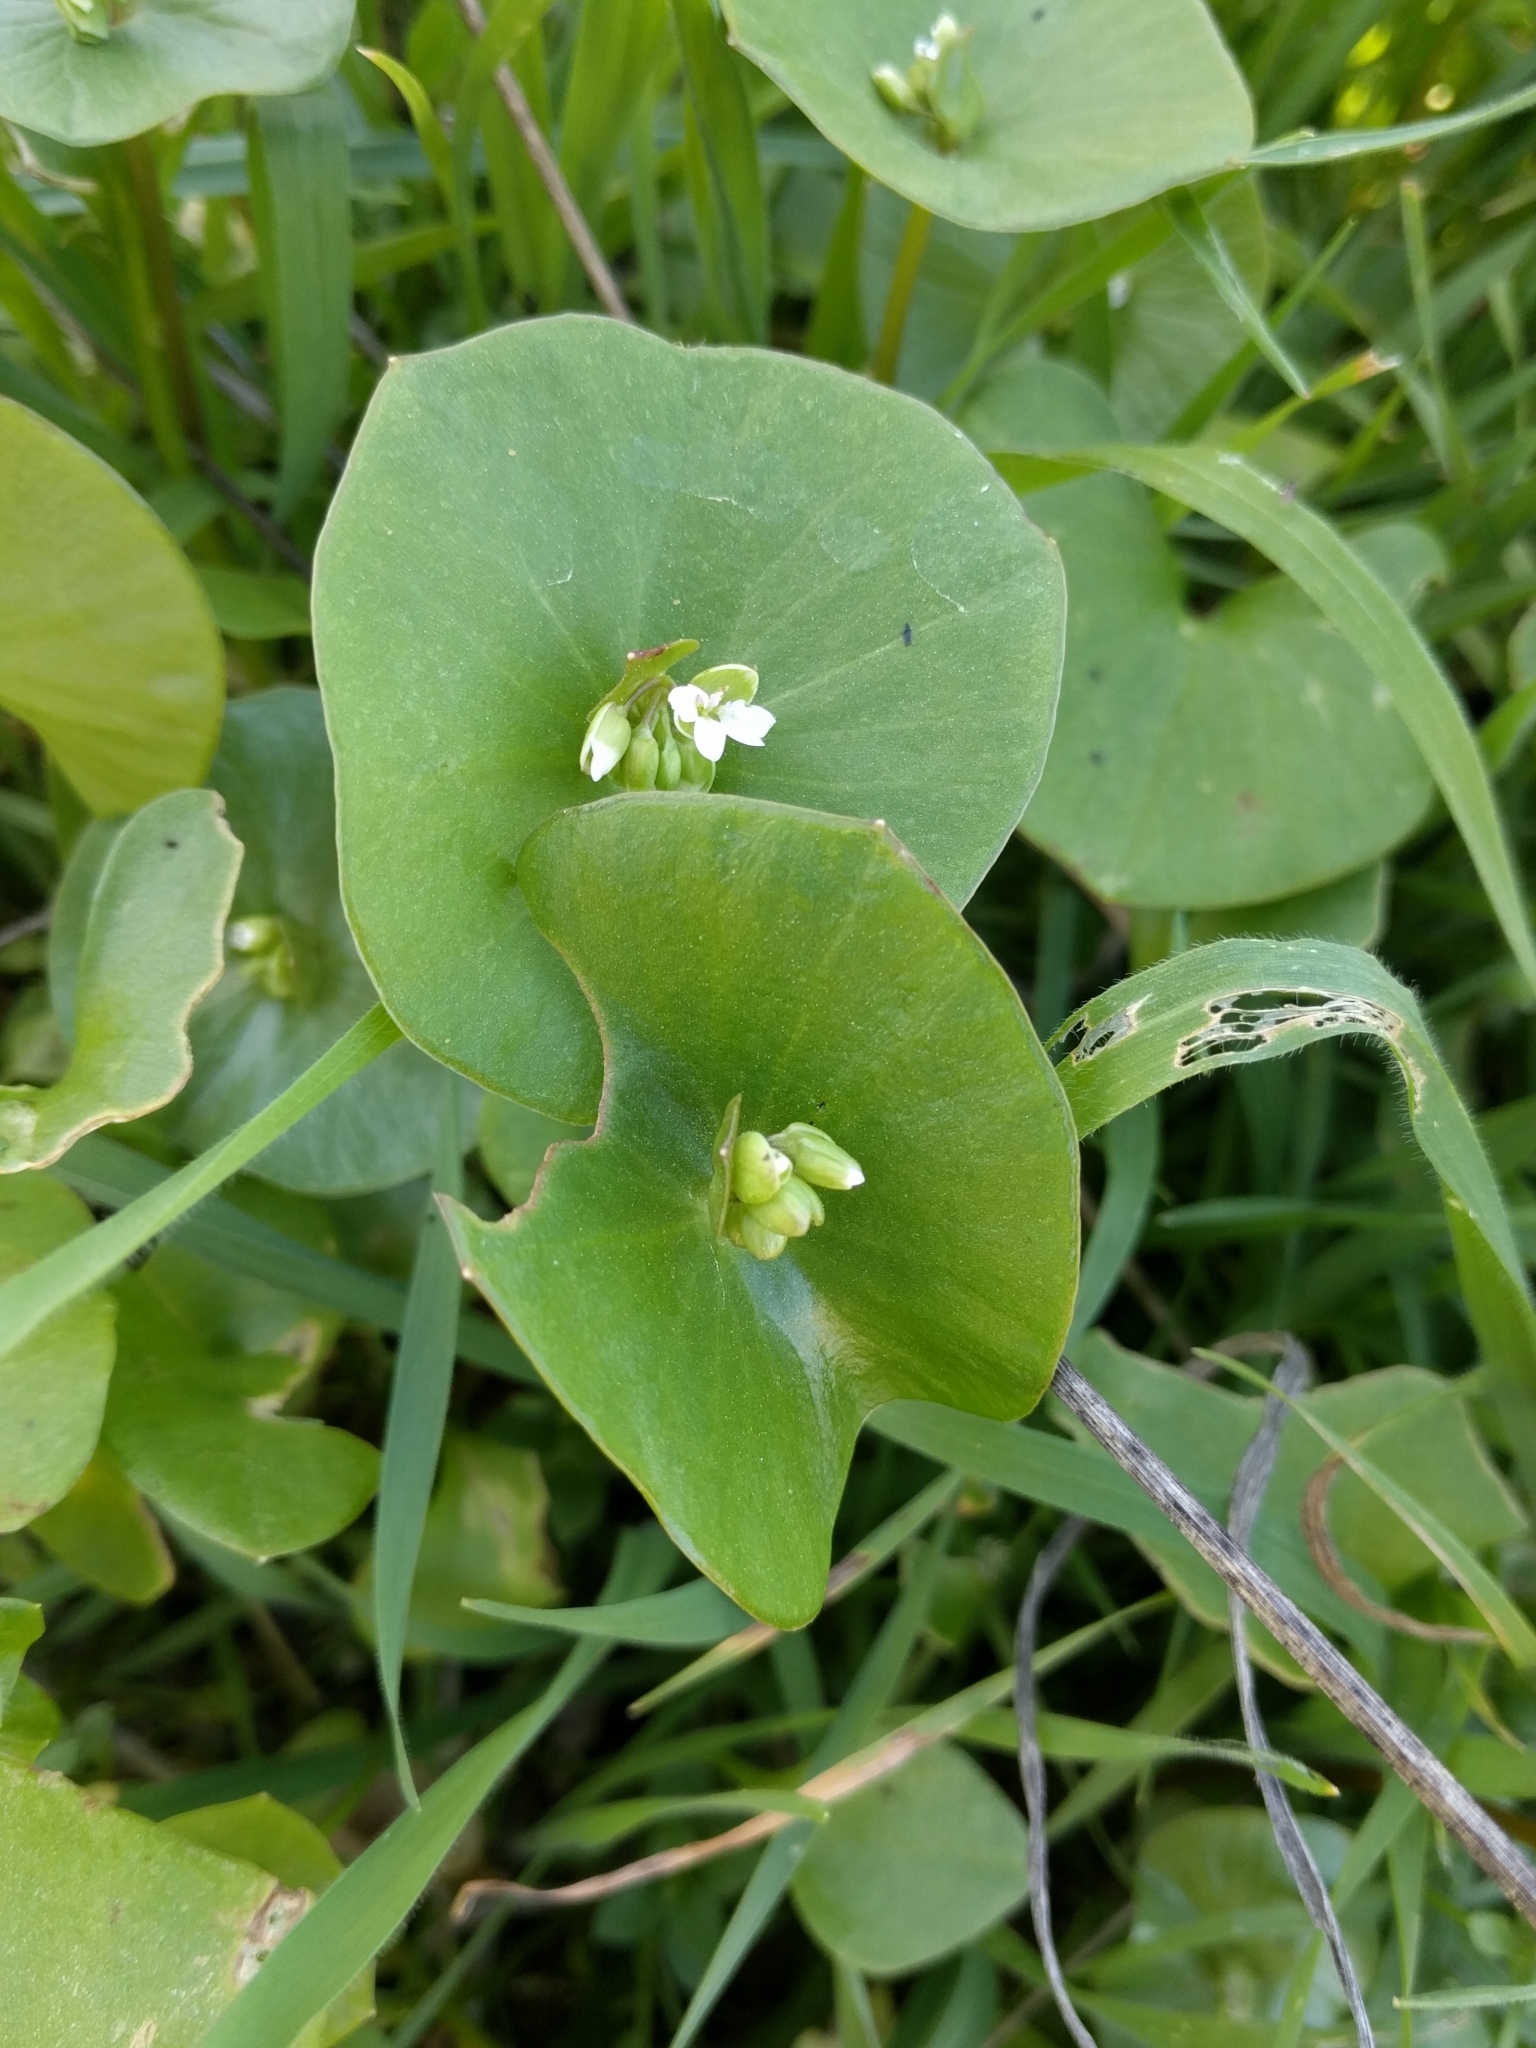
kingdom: Plantae
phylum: Tracheophyta
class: Magnoliopsida
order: Caryophyllales
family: Montiaceae
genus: Claytonia
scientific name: Claytonia perfoliata
